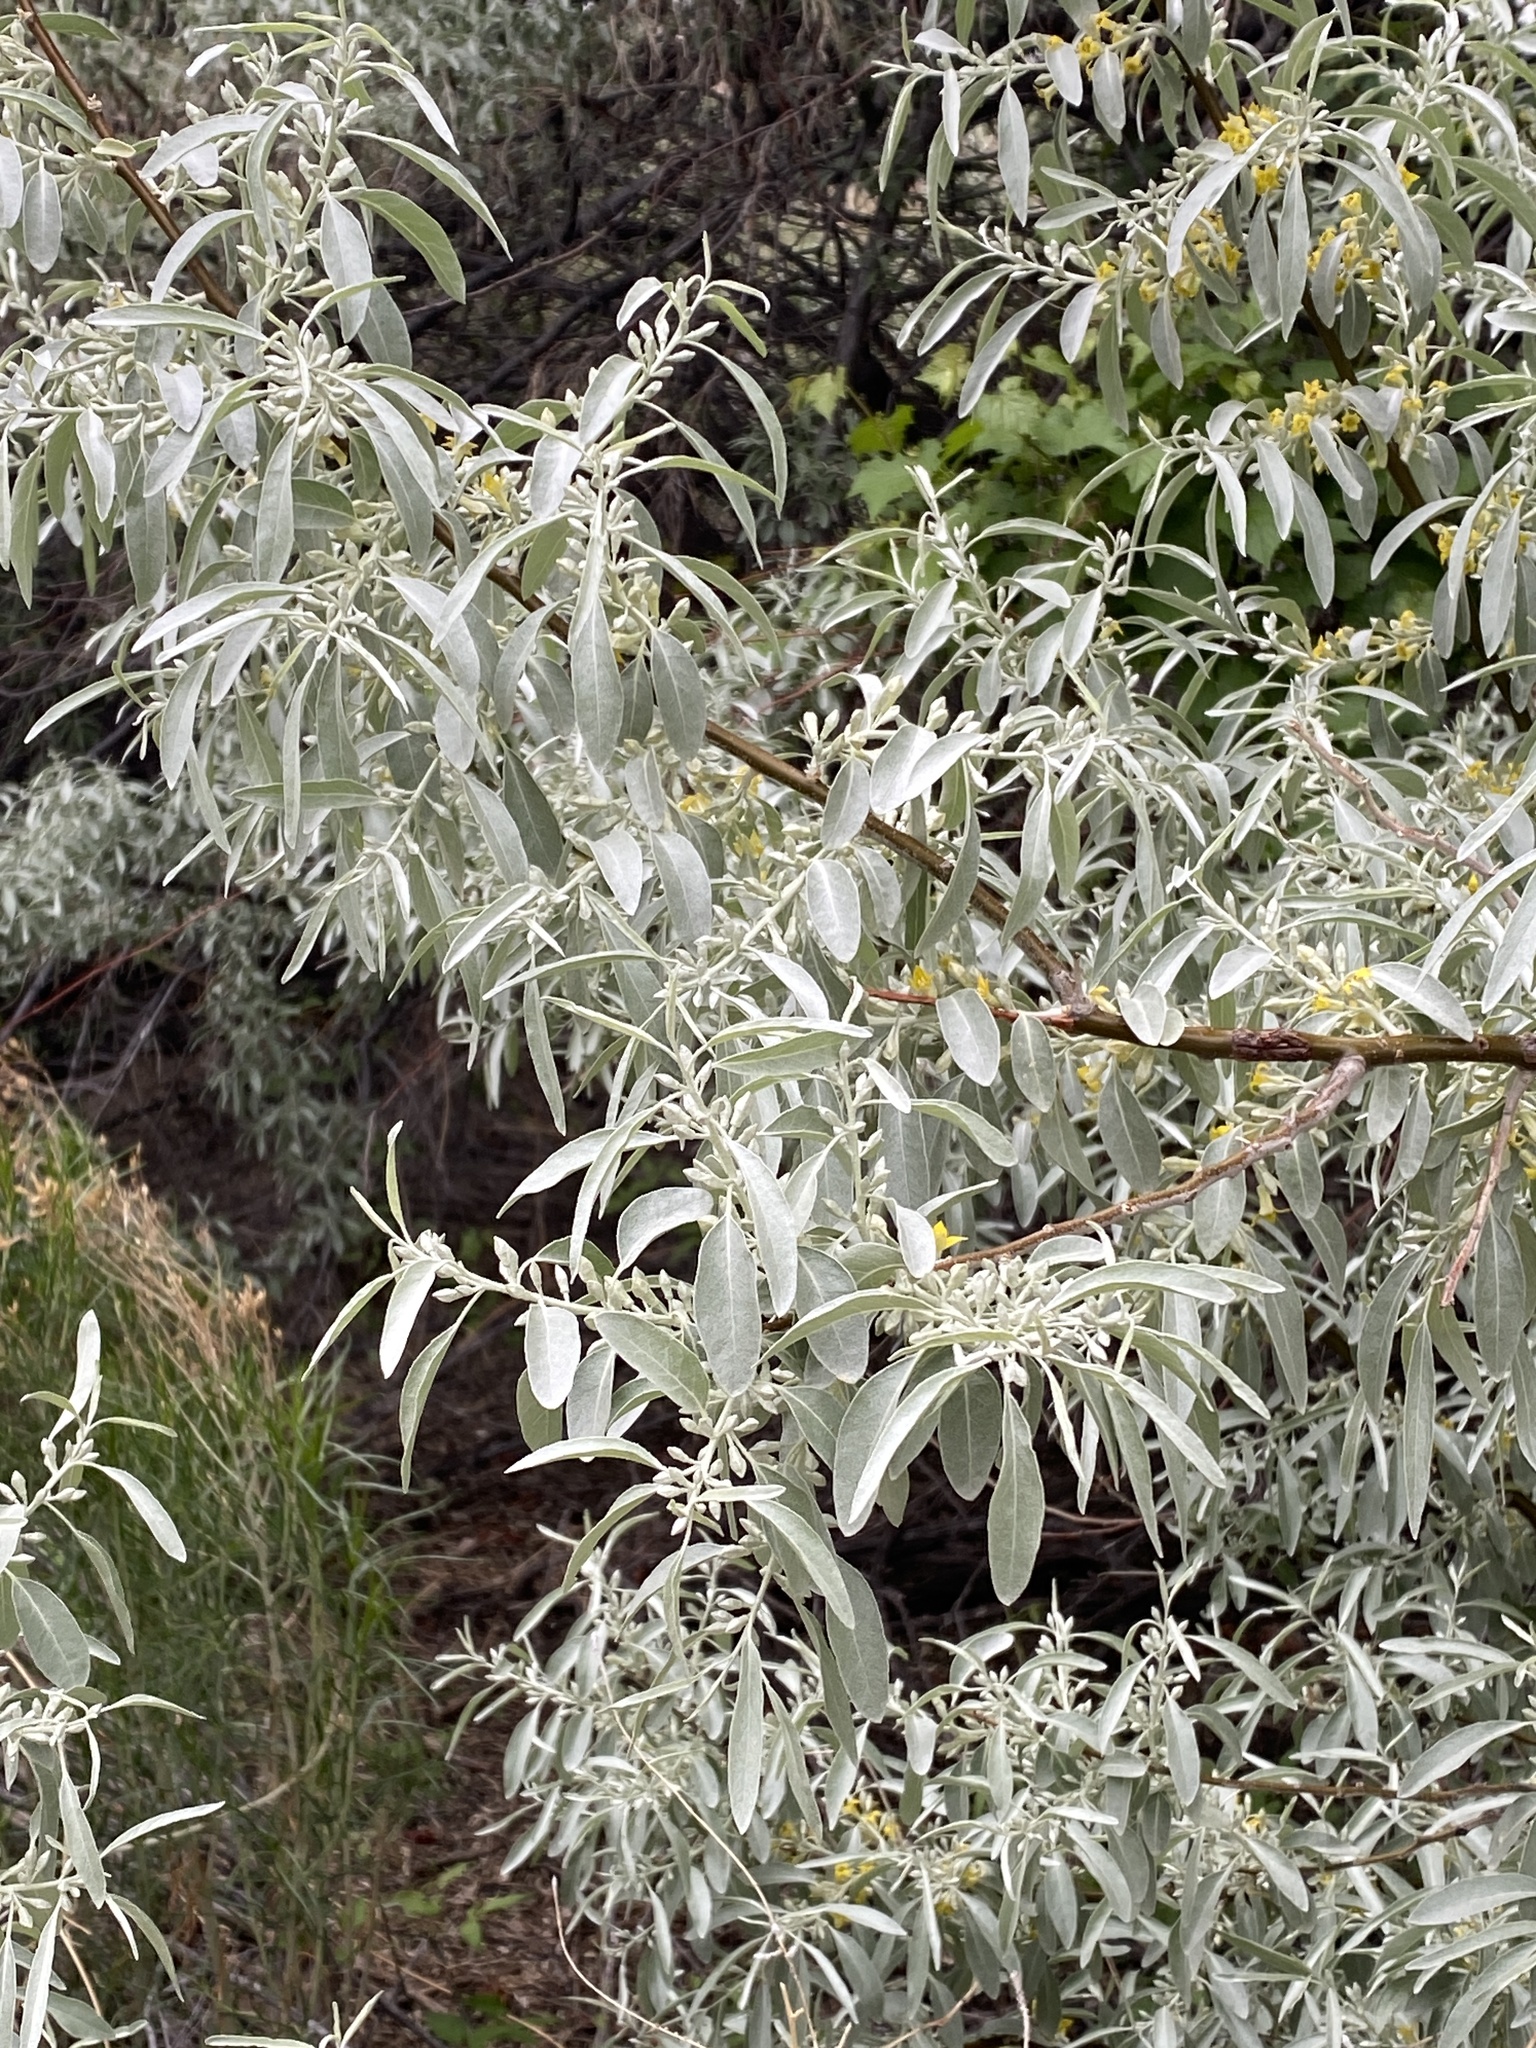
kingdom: Plantae
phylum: Tracheophyta
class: Magnoliopsida
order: Rosales
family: Elaeagnaceae
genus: Elaeagnus
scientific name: Elaeagnus angustifolia
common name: Russian olive
